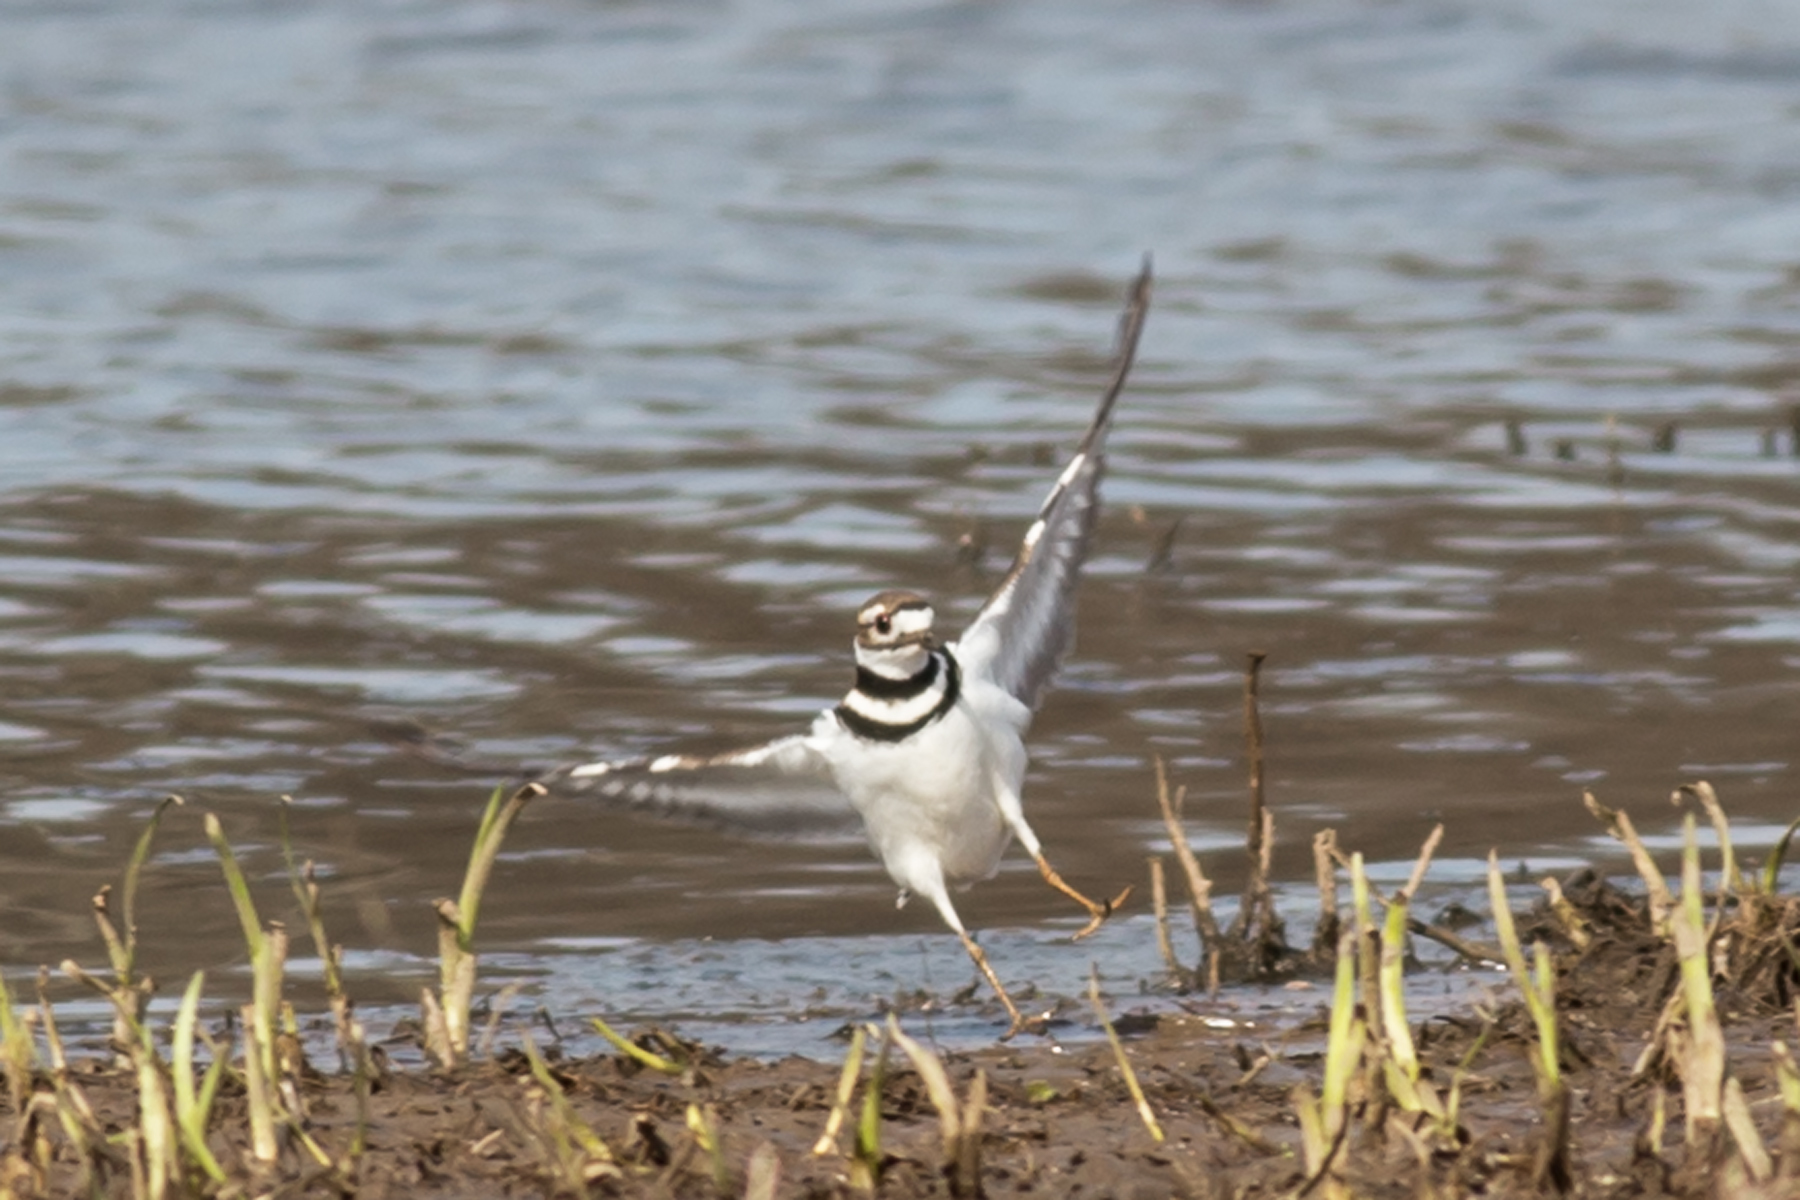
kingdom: Animalia
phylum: Chordata
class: Aves
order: Charadriiformes
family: Charadriidae
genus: Charadrius
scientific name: Charadrius vociferus
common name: Killdeer
